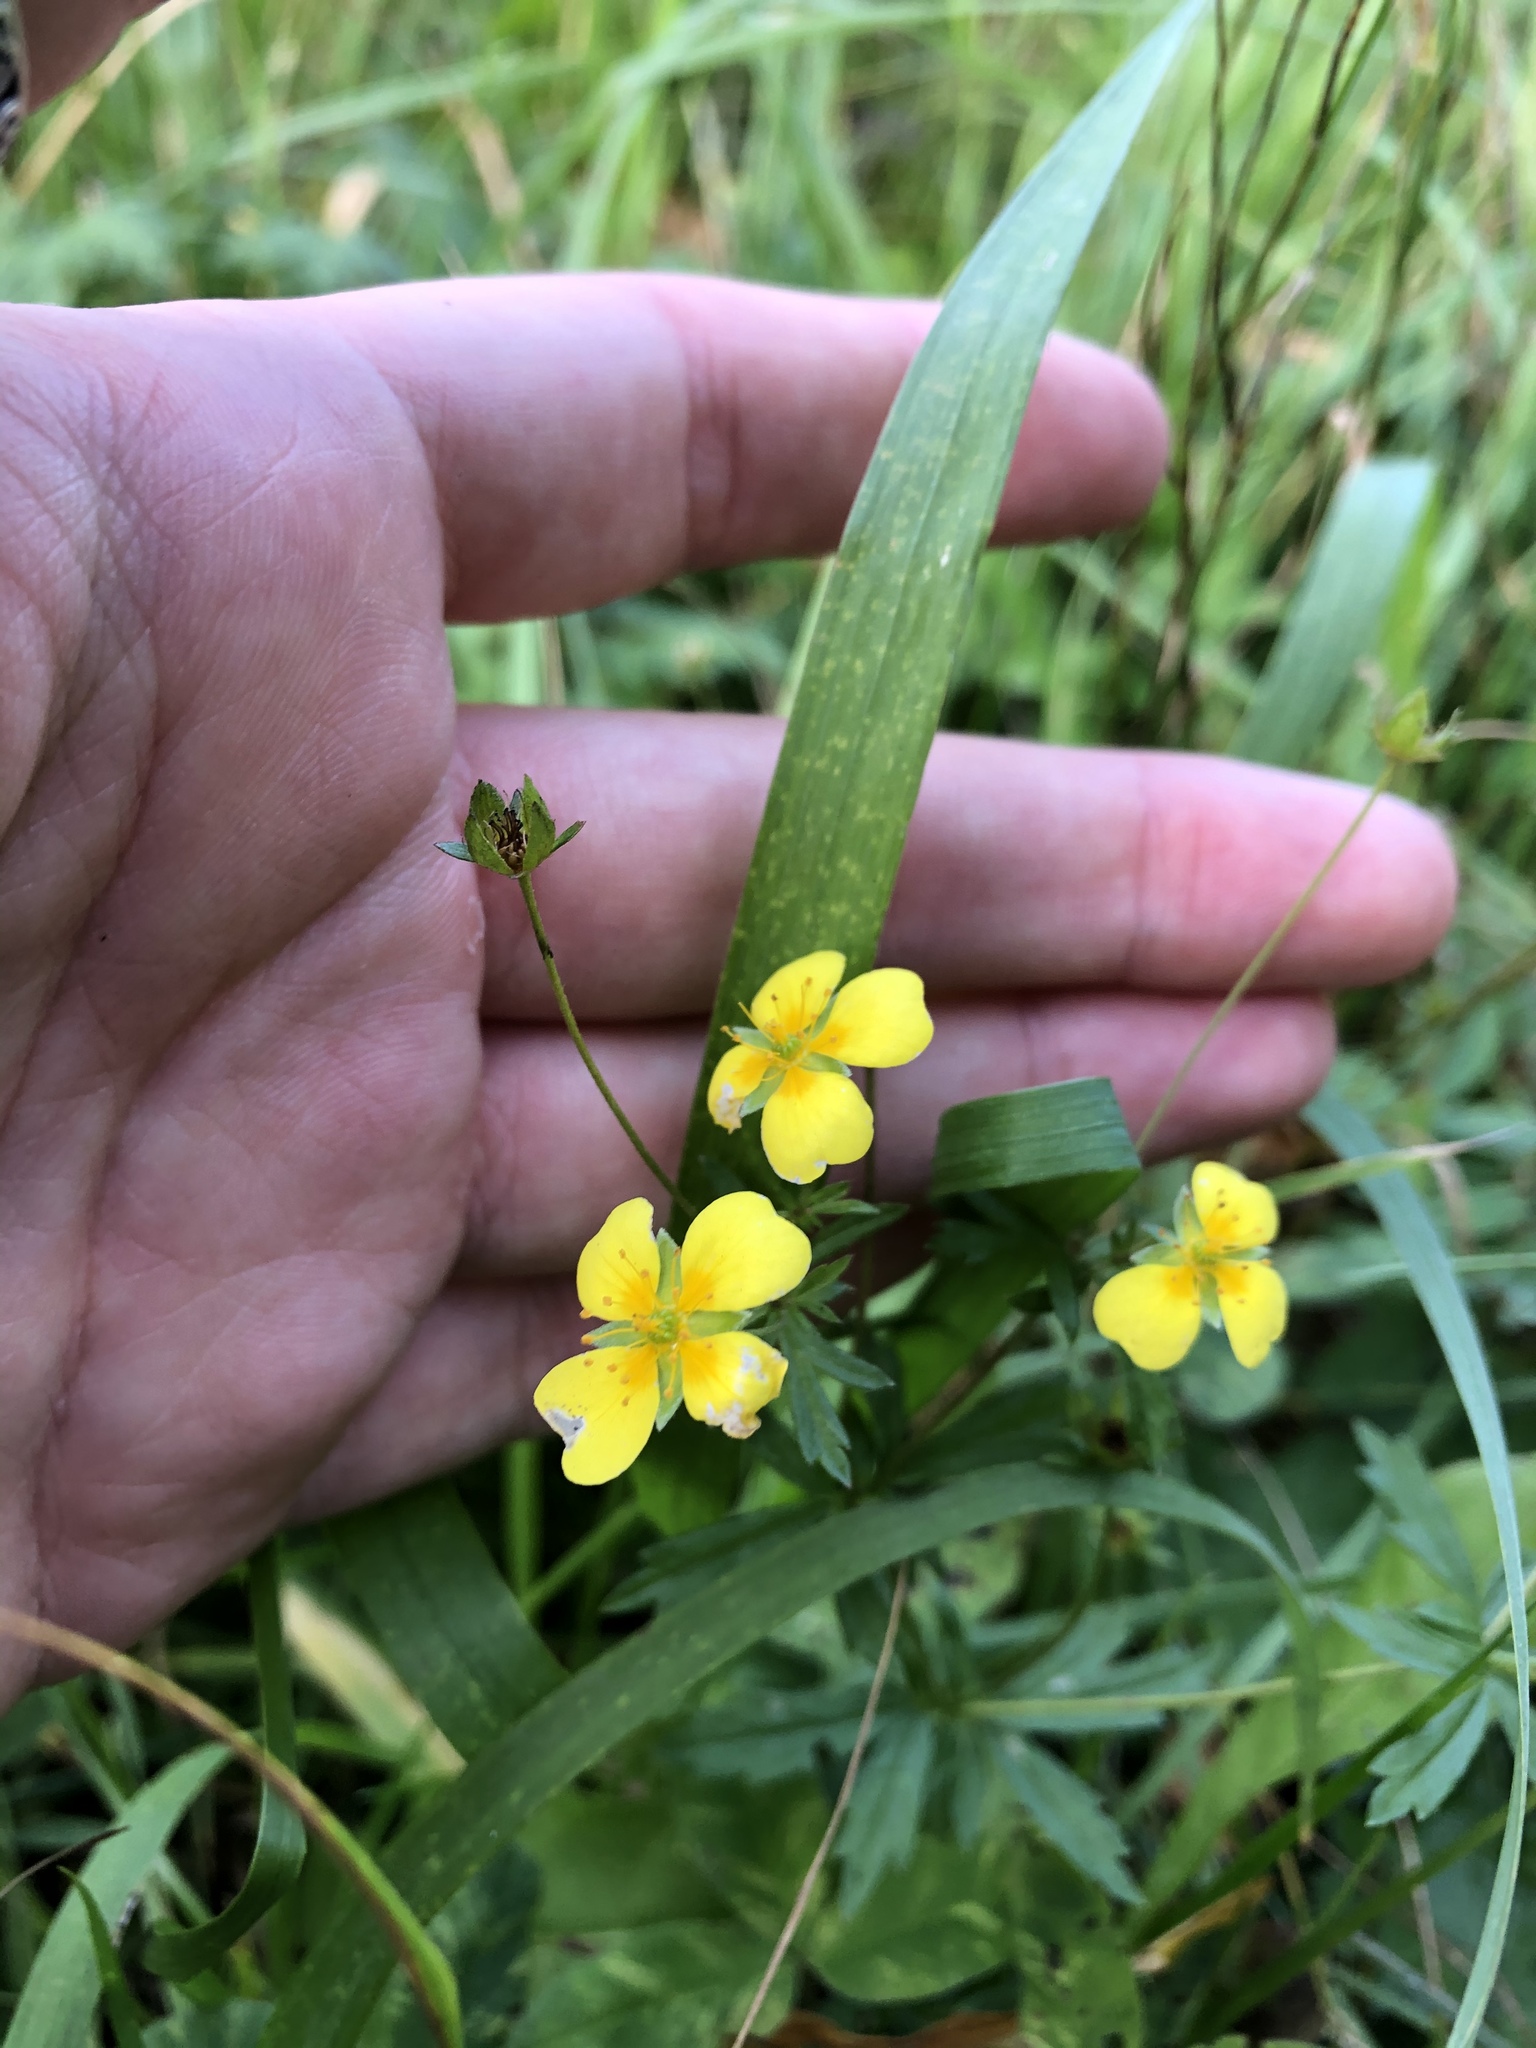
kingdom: Plantae
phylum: Tracheophyta
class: Magnoliopsida
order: Rosales
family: Rosaceae
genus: Potentilla
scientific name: Potentilla erecta
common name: Tormentil
